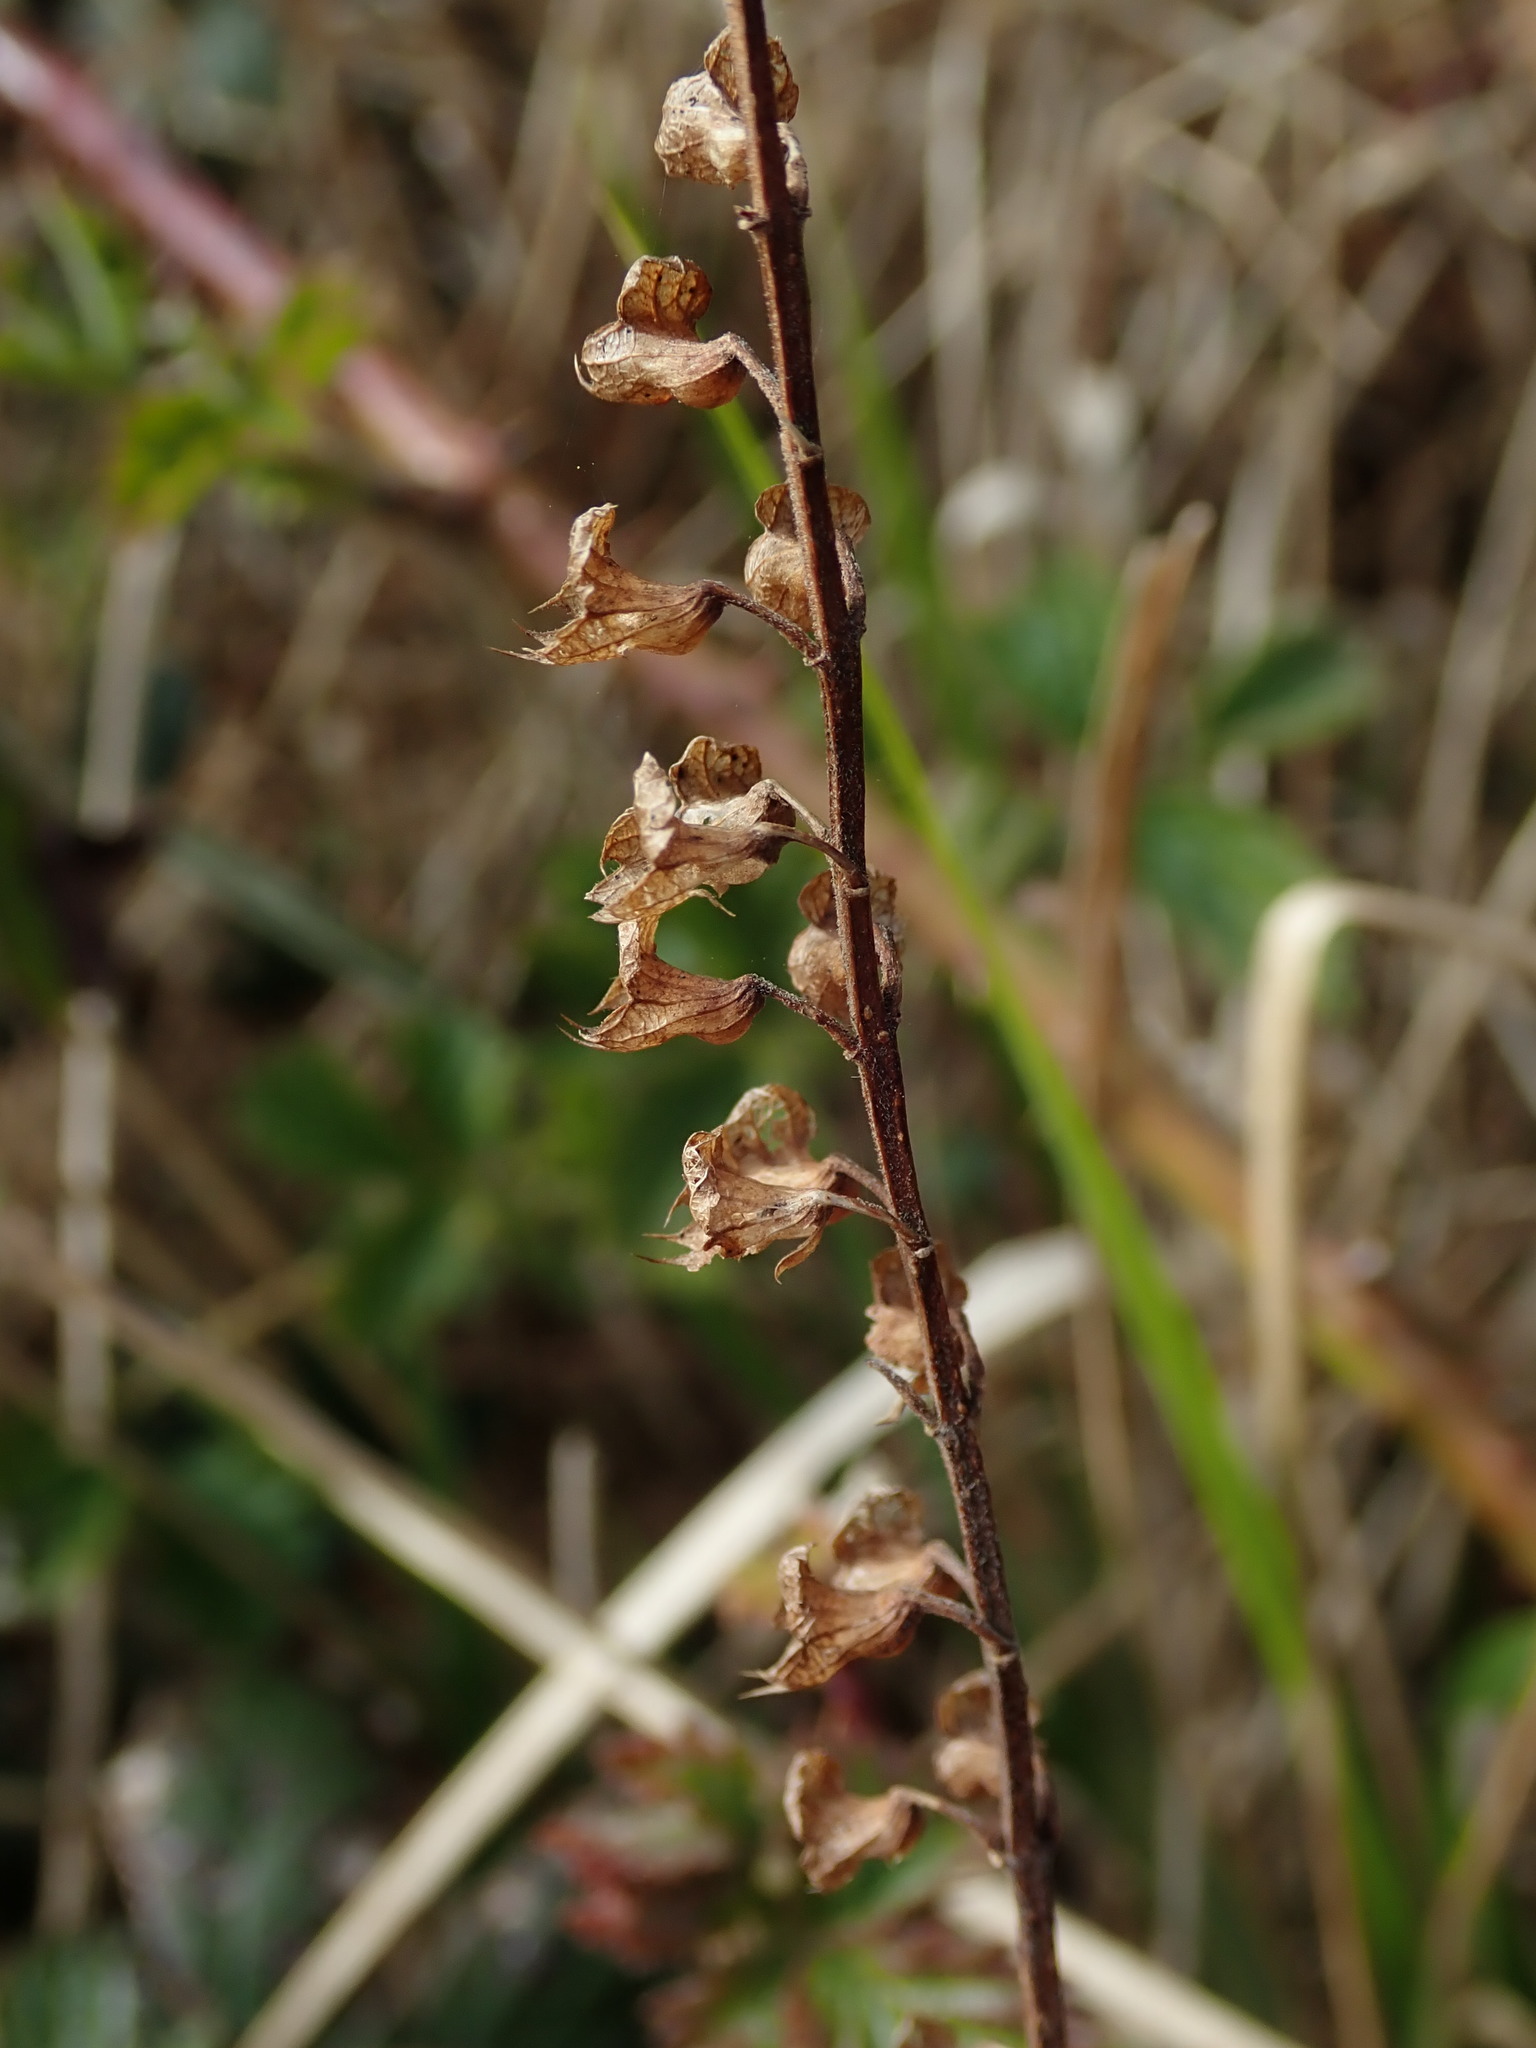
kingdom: Plantae
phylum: Tracheophyta
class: Magnoliopsida
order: Lamiales
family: Lamiaceae
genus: Teucrium
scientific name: Teucrium scorodonia
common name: Woodland germander
